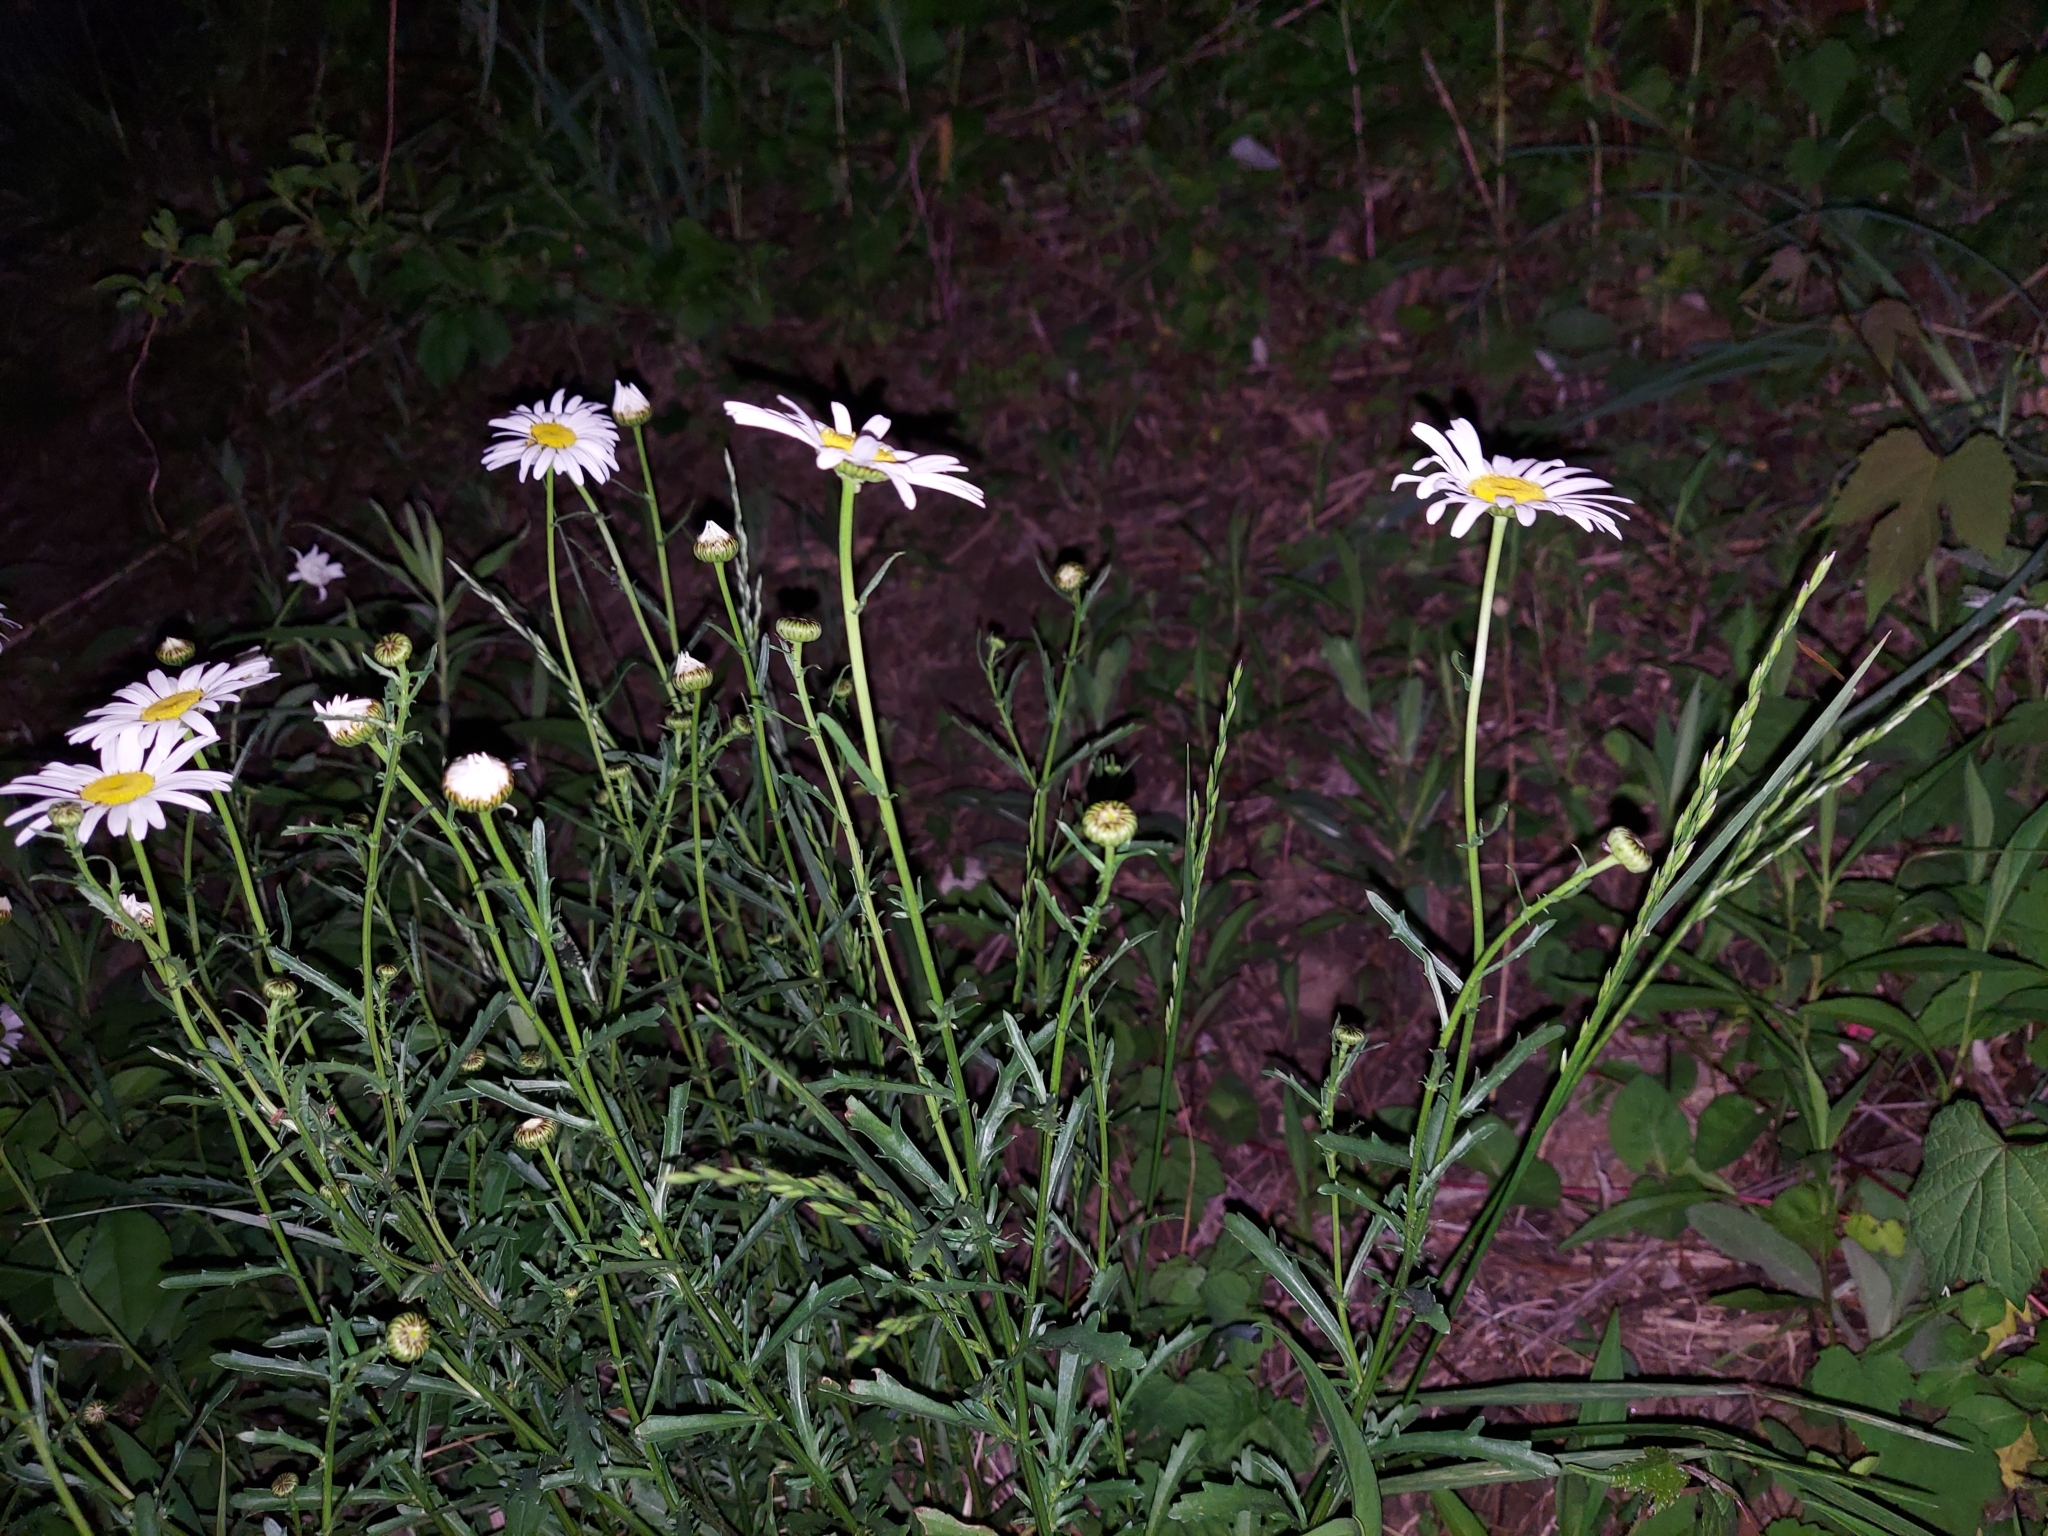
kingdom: Plantae
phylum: Tracheophyta
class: Magnoliopsida
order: Asterales
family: Asteraceae
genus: Leucanthemum
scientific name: Leucanthemum vulgare
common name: Oxeye daisy
